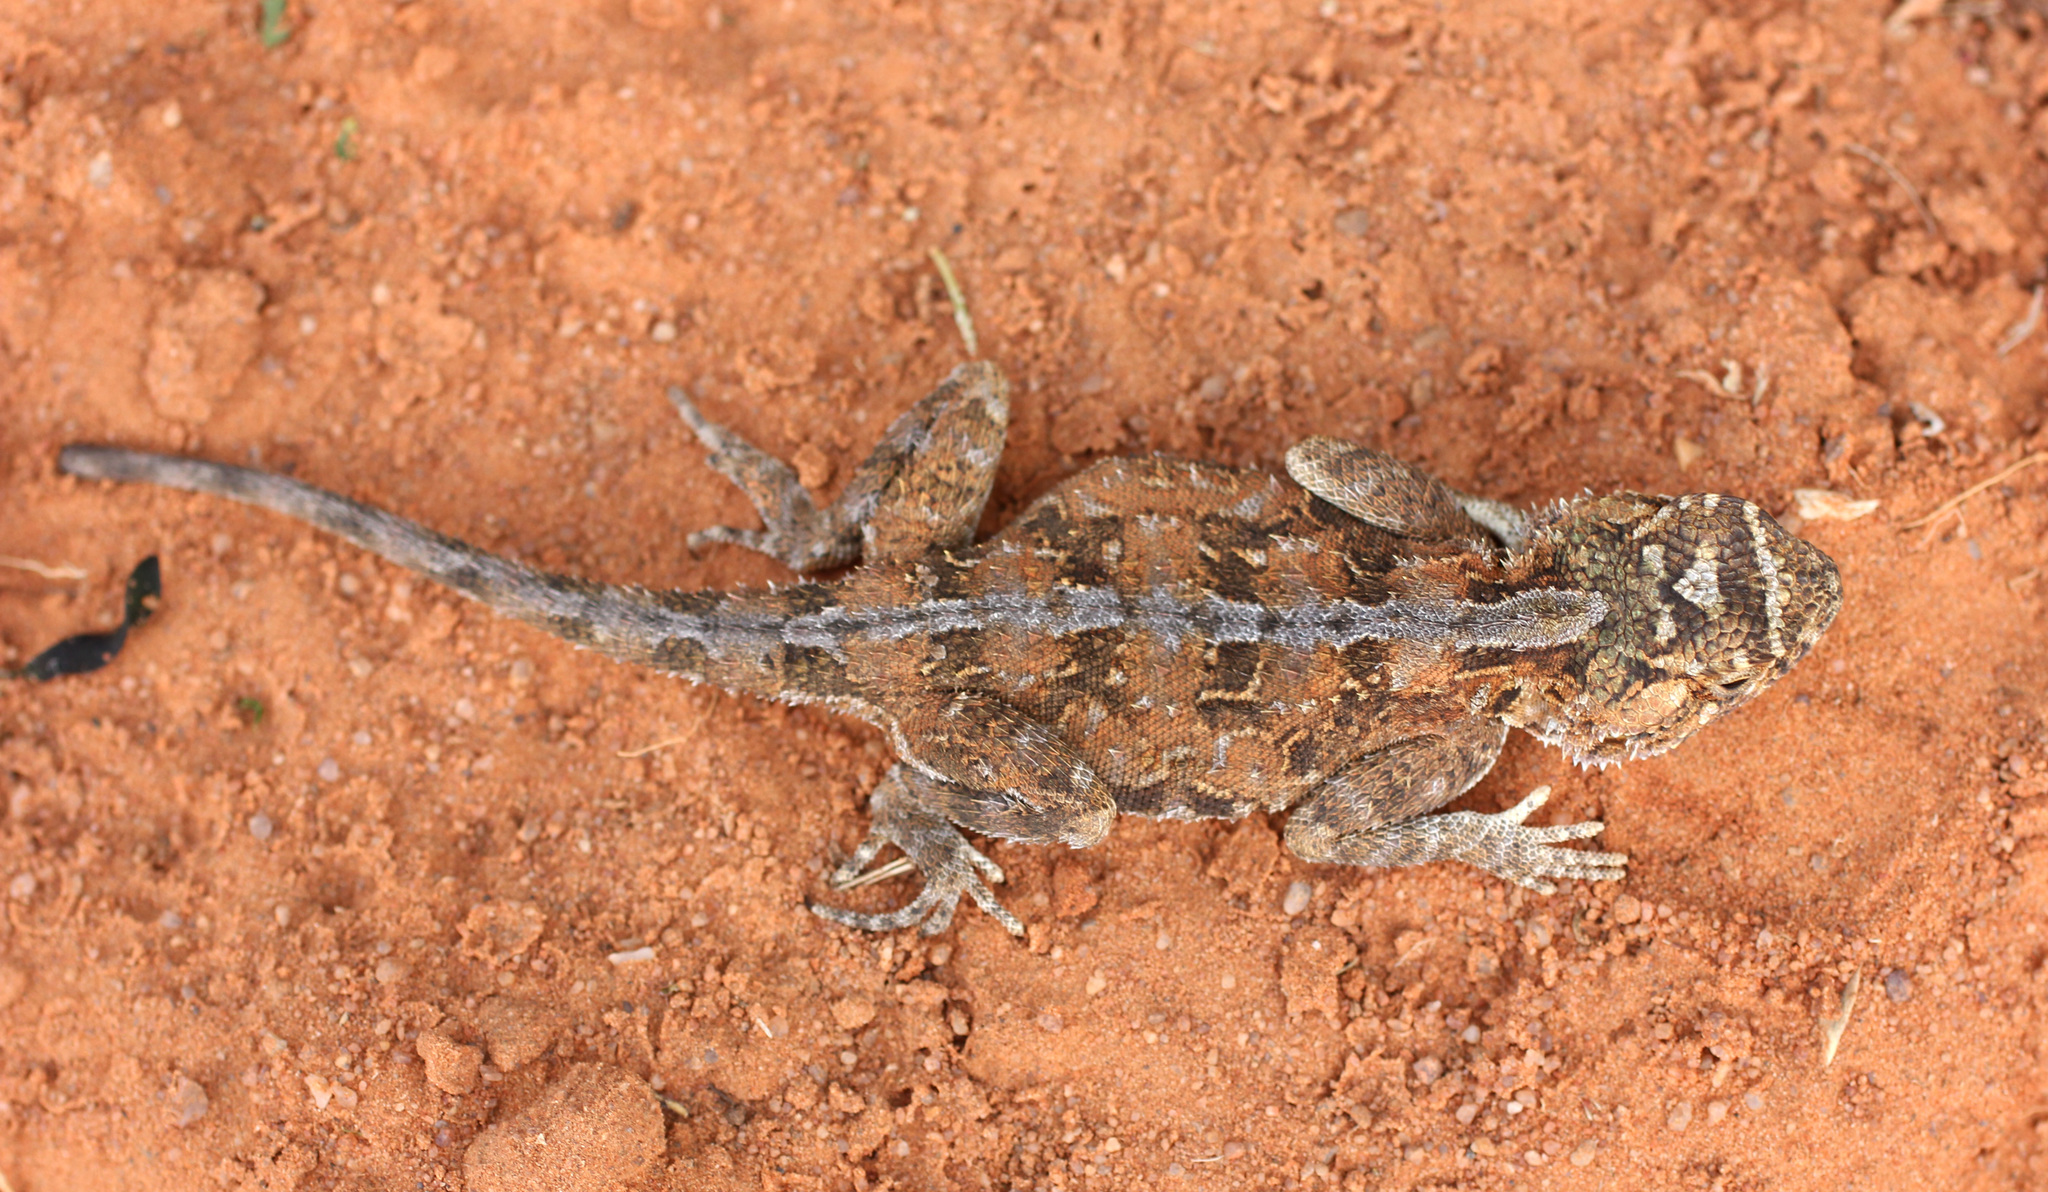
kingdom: Animalia
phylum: Chordata
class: Squamata
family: Agamidae
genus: Agama
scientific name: Agama aculeata
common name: Common ground agama
